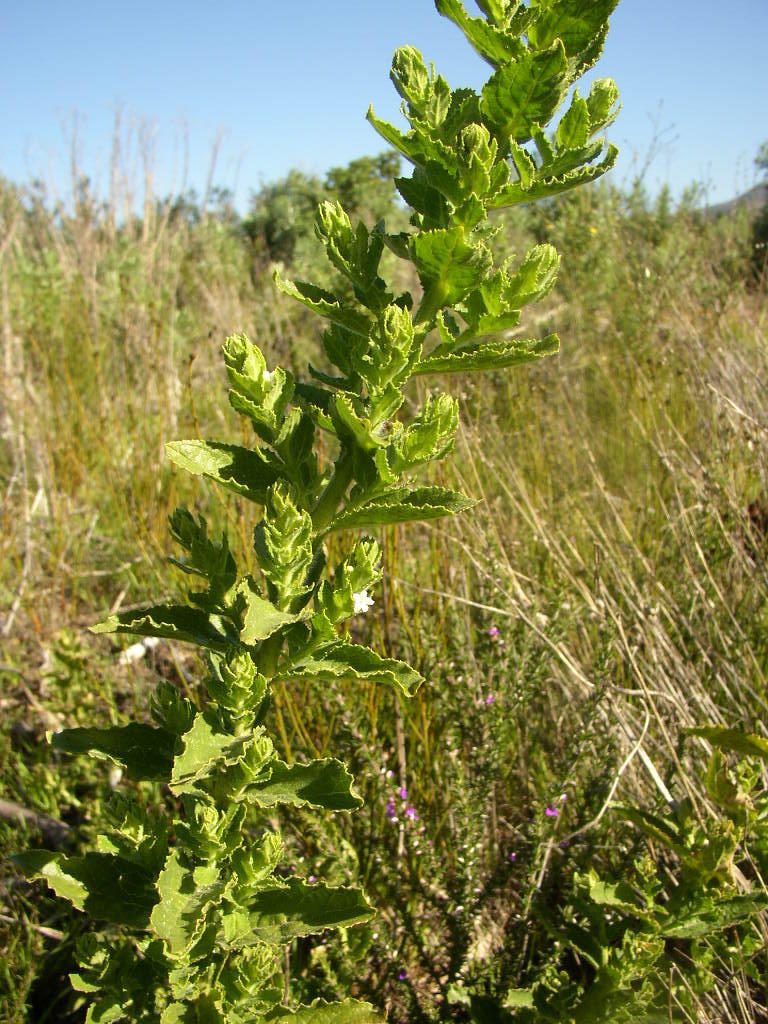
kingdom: Plantae
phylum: Tracheophyta
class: Magnoliopsida
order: Lamiales
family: Scrophulariaceae
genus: Oftia
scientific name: Oftia africana
